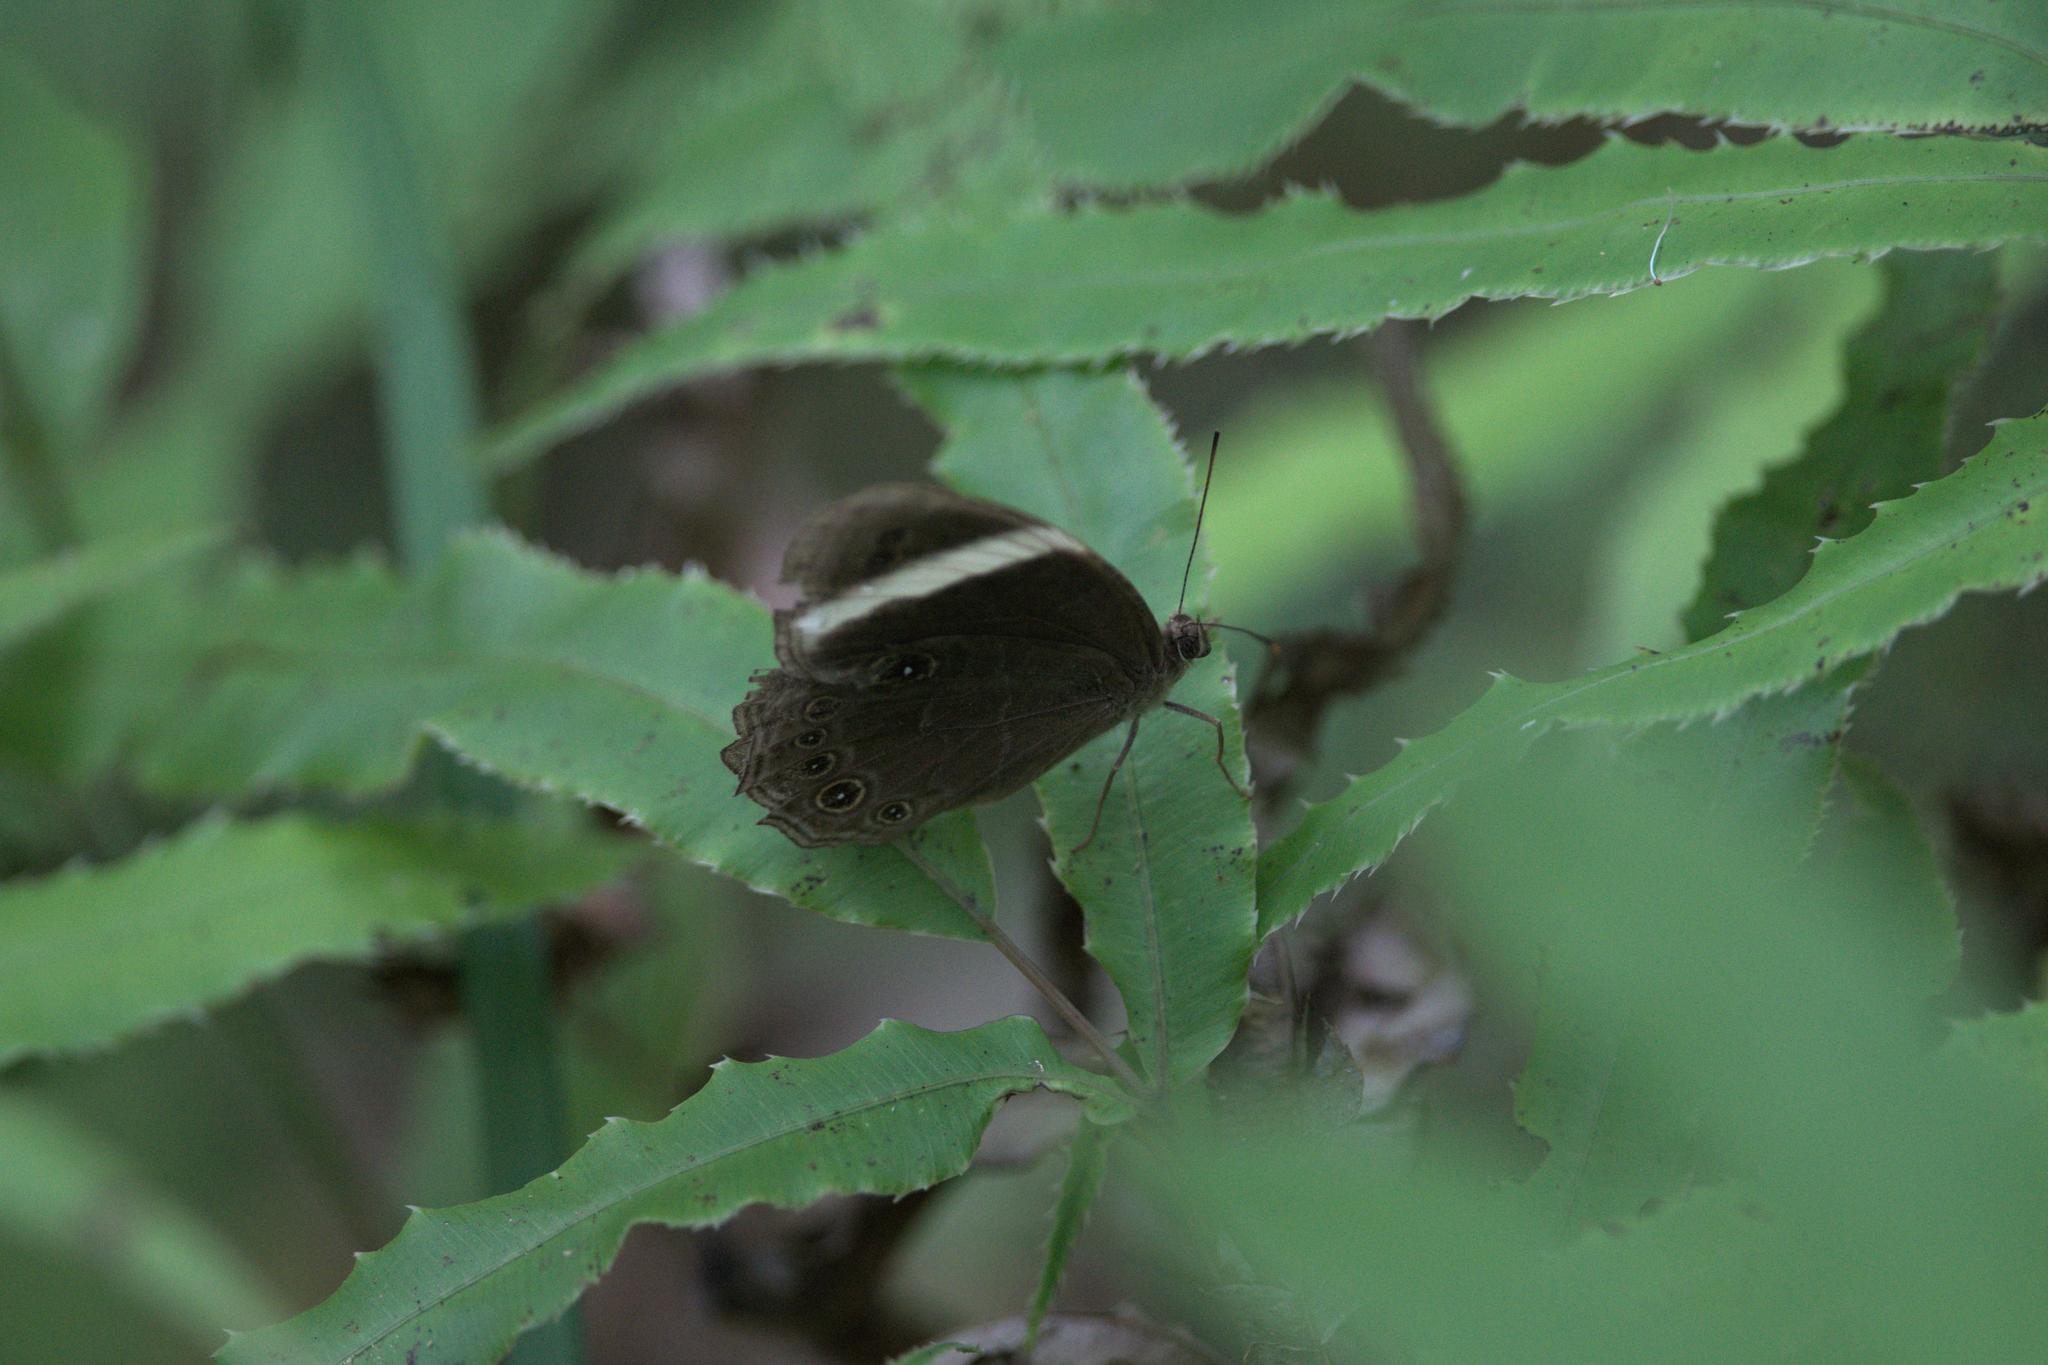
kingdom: Animalia
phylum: Arthropoda
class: Insecta
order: Lepidoptera
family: Nymphalidae
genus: Lethe
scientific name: Lethe verma
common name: Straight-banded treebrown
